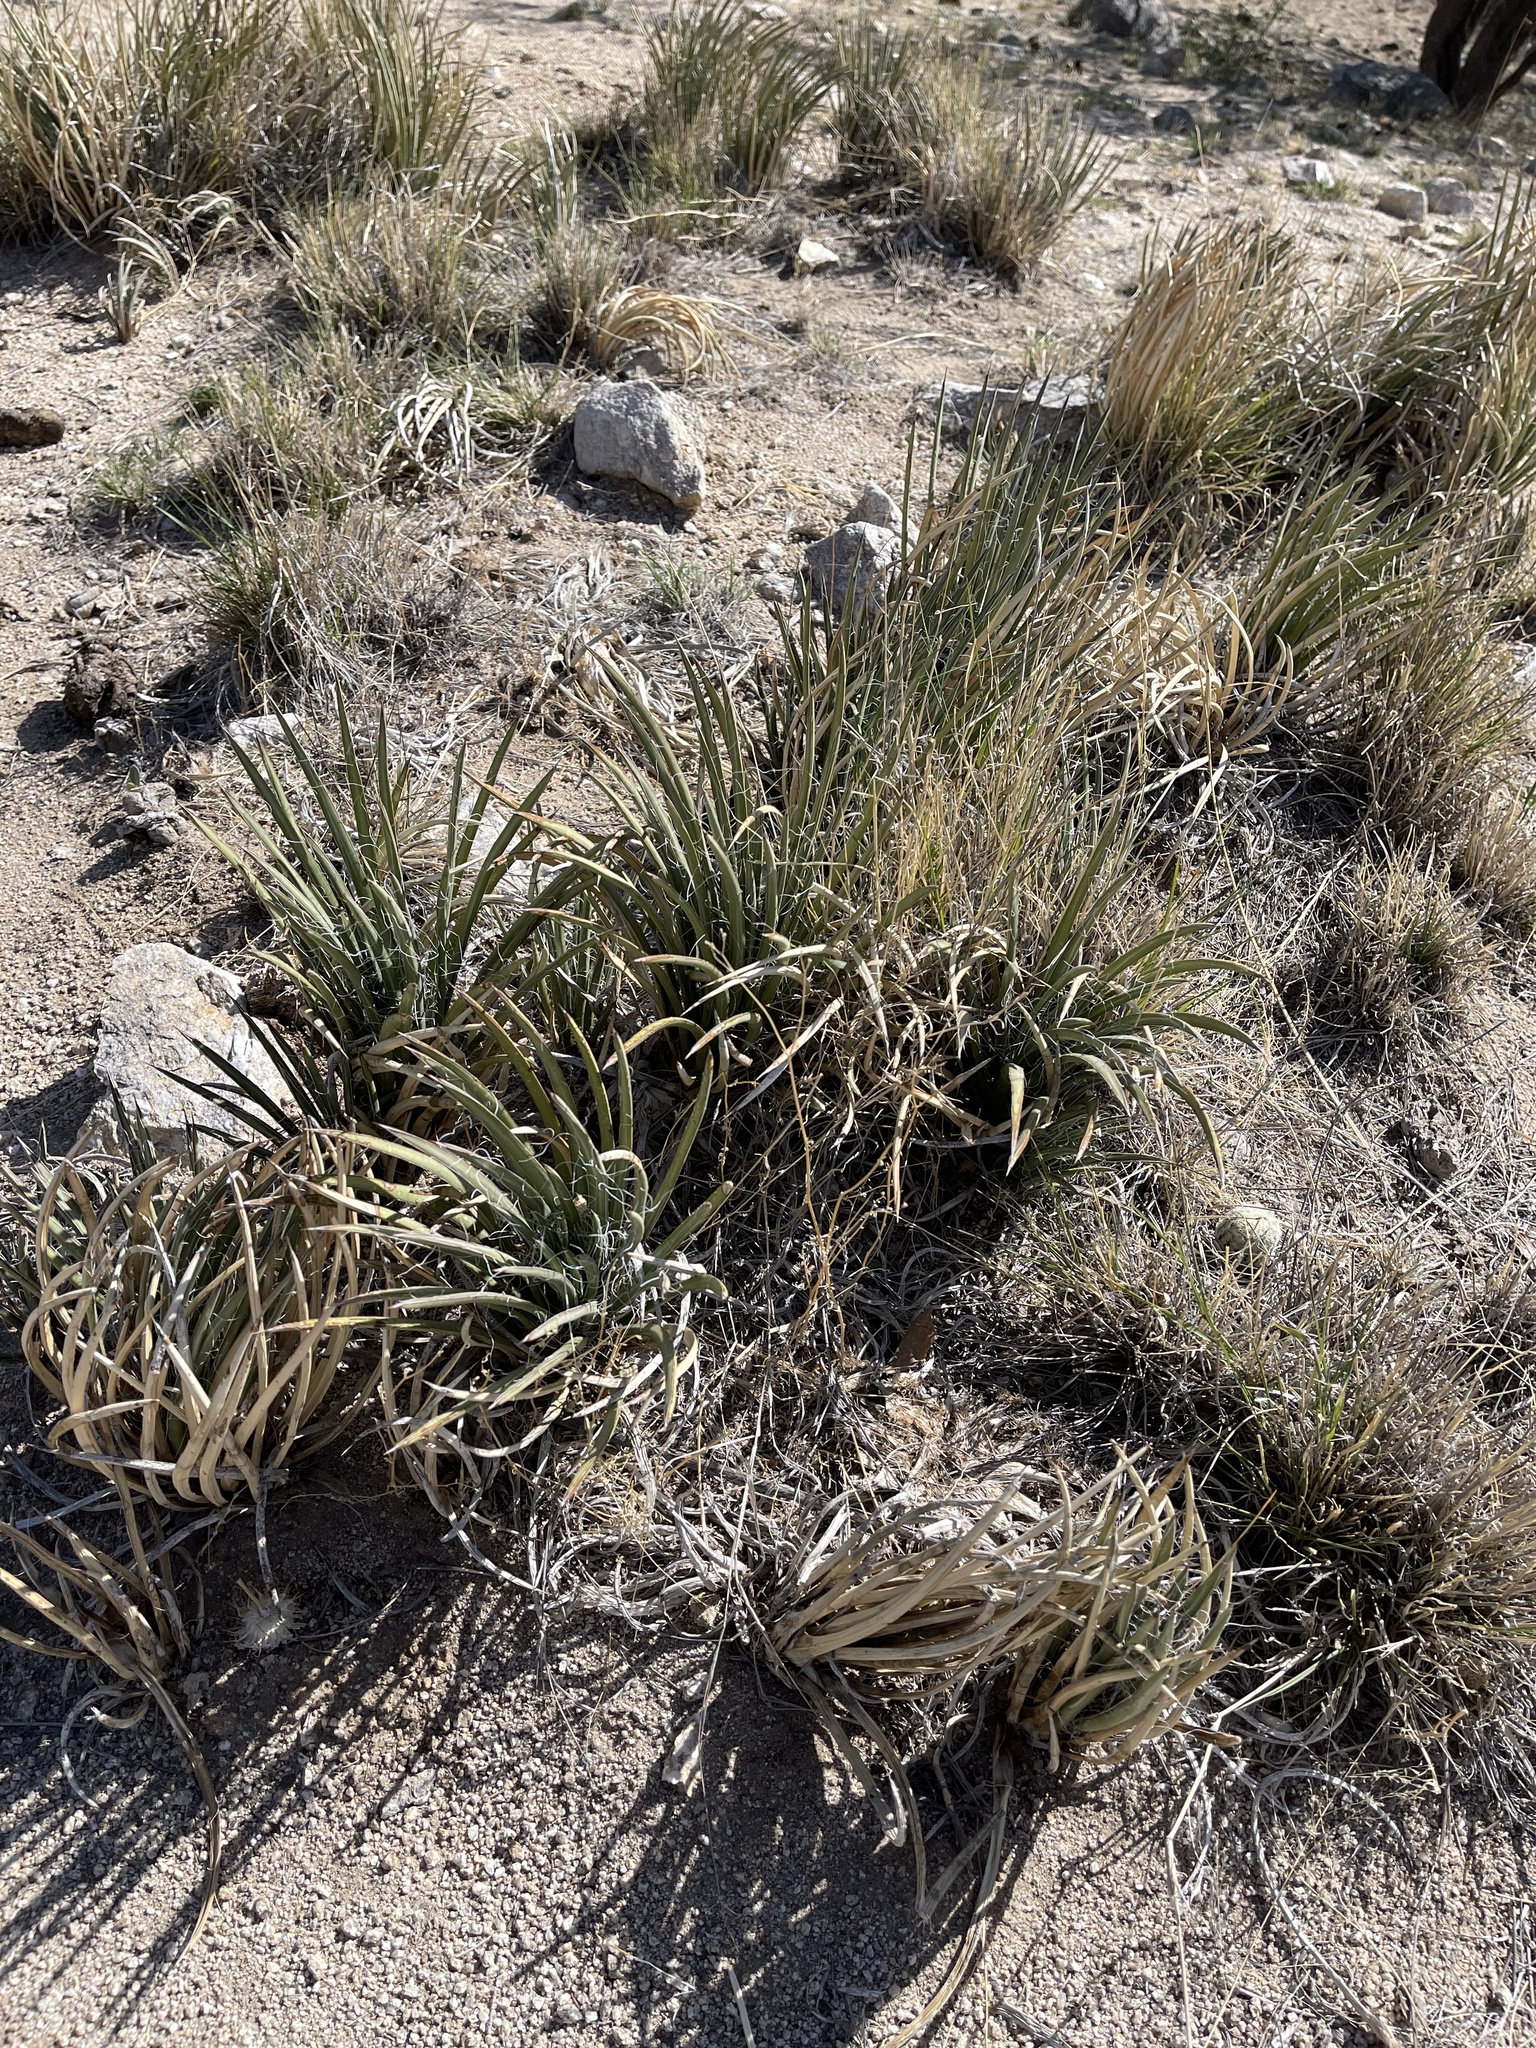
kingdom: Plantae
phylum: Tracheophyta
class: Liliopsida
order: Asparagales
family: Asparagaceae
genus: Agave
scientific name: Agave schottii
